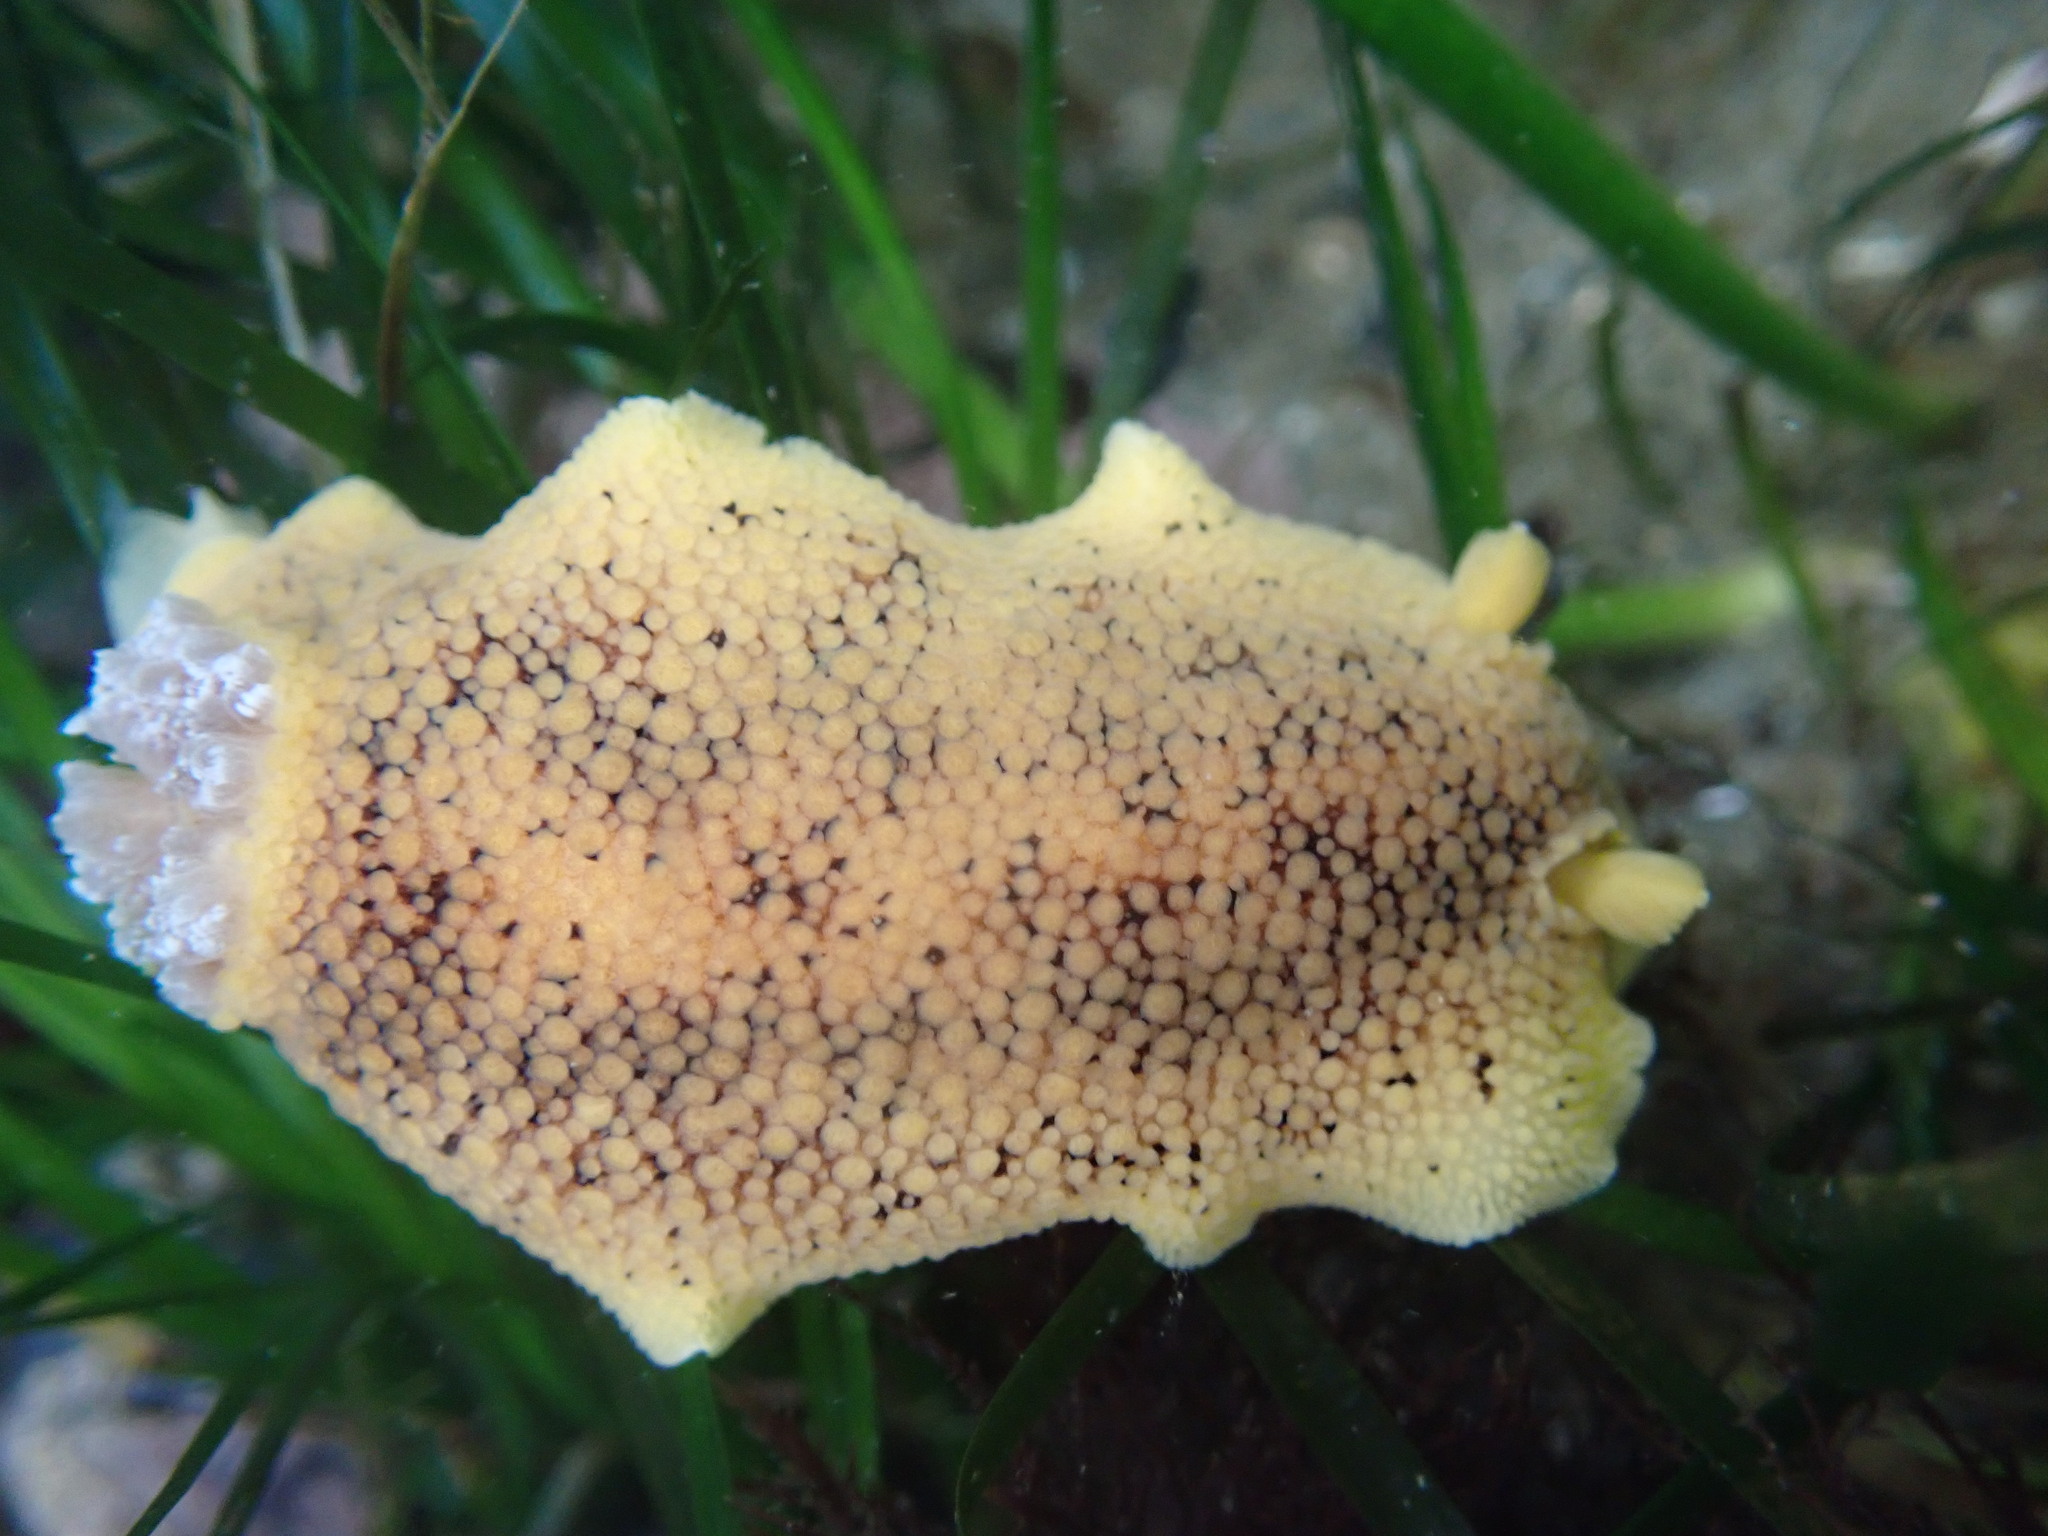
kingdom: Animalia
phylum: Mollusca
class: Gastropoda
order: Nudibranchia
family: Discodorididae
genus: Peltodoris
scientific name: Peltodoris nobilis
